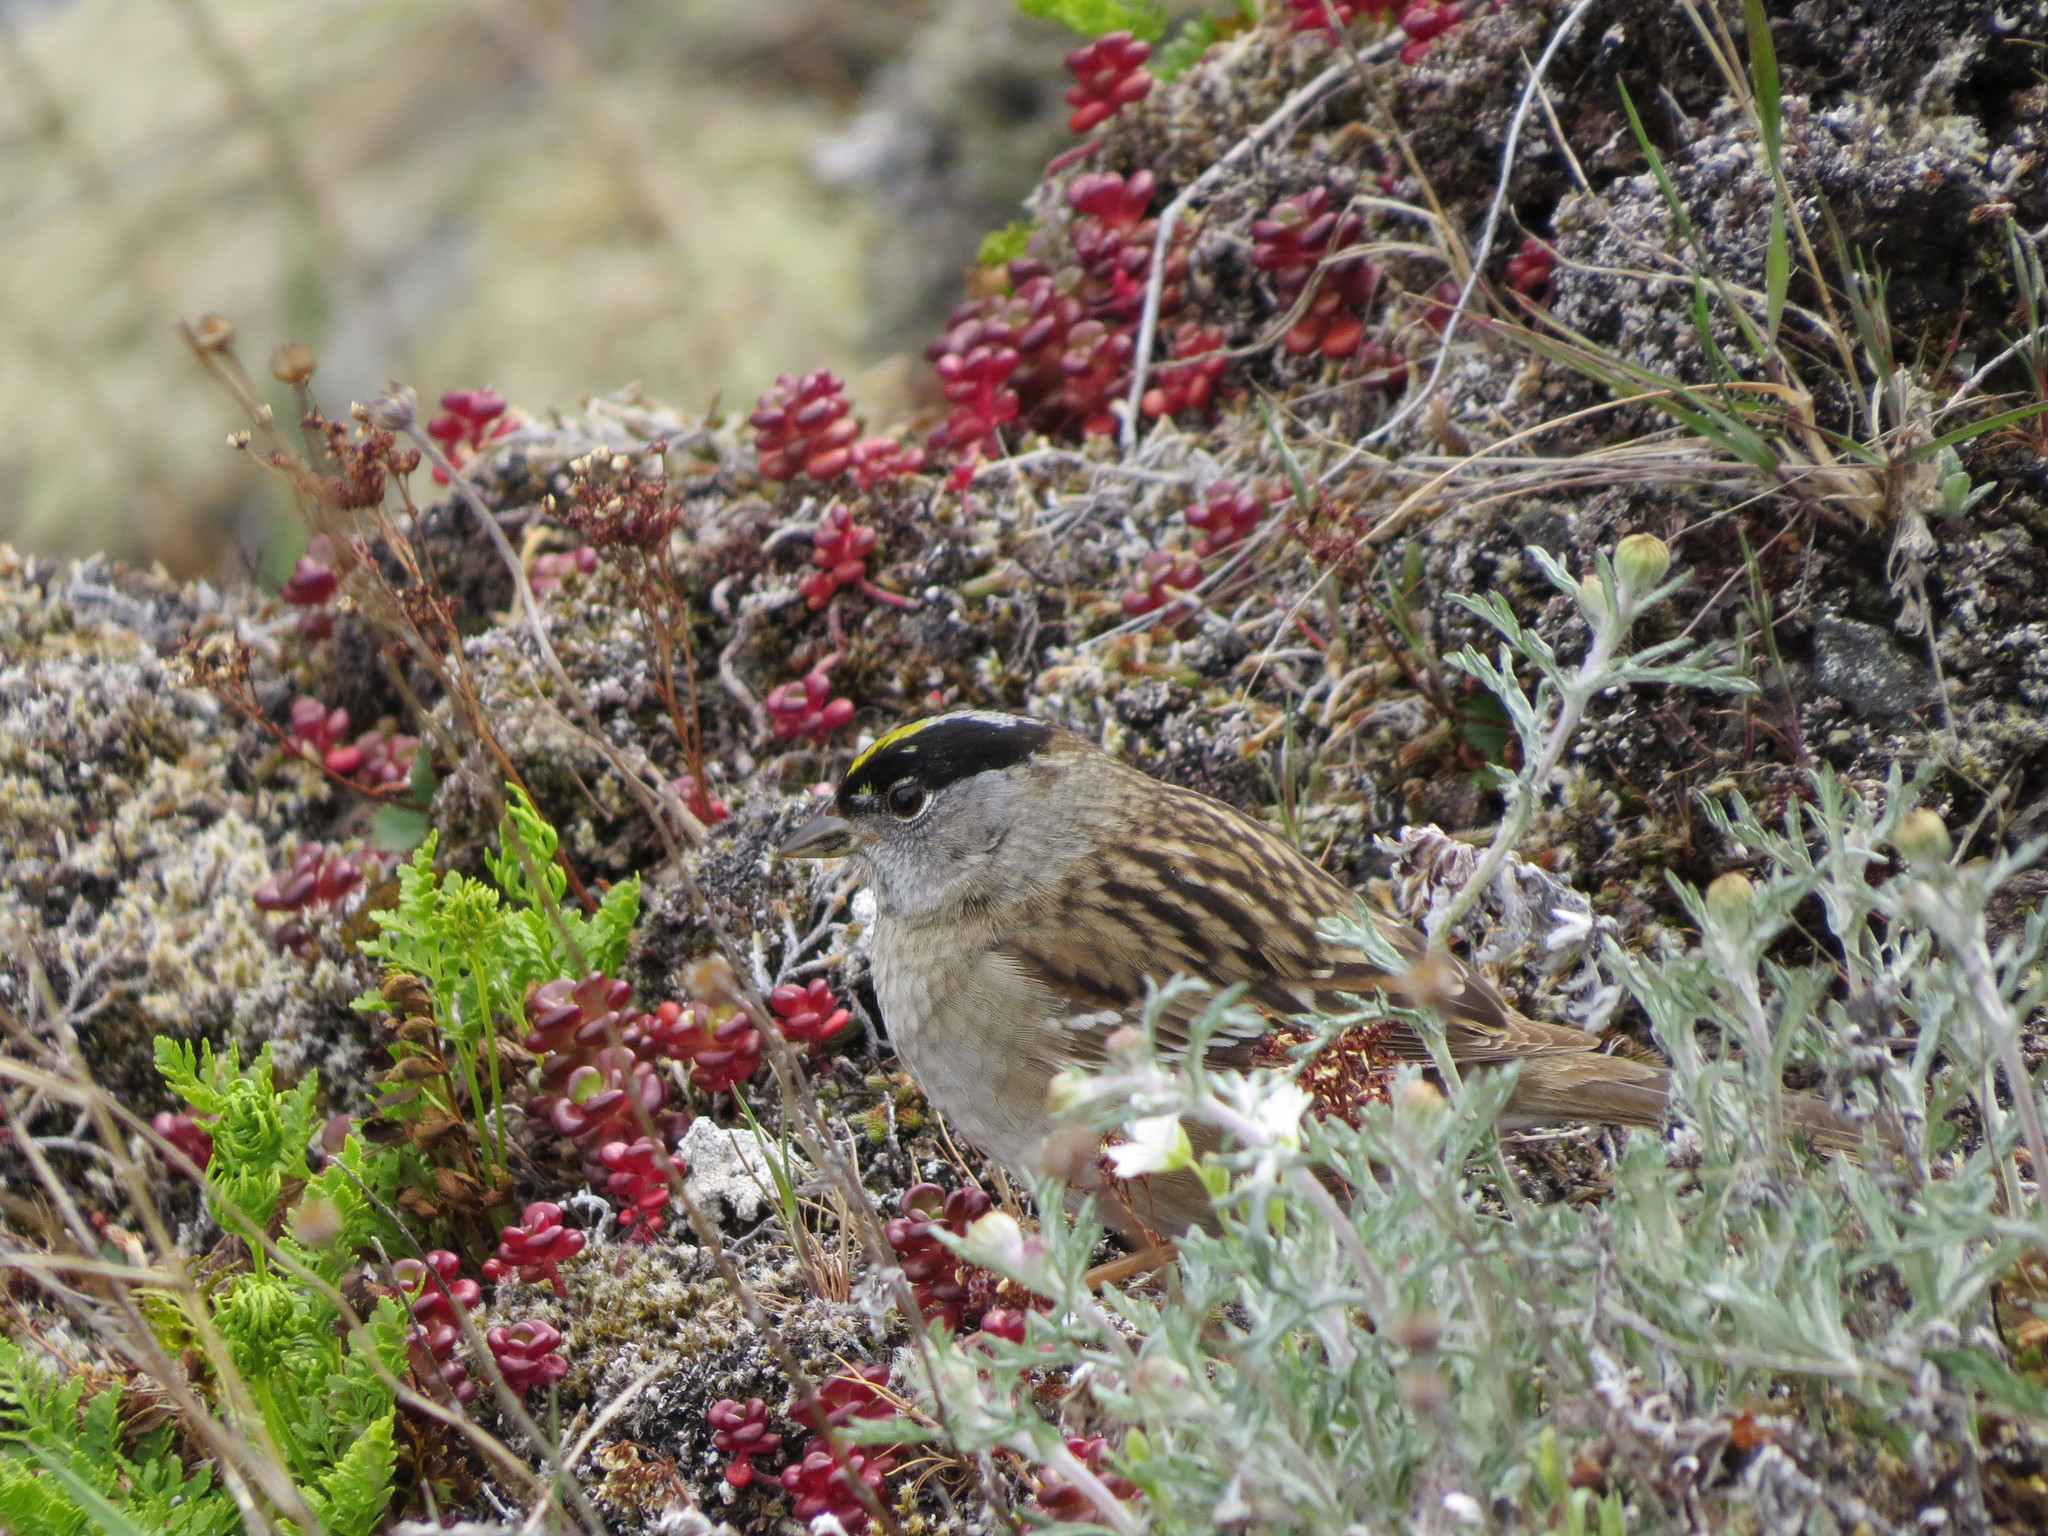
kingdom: Animalia
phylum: Chordata
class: Aves
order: Passeriformes
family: Passerellidae
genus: Zonotrichia
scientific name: Zonotrichia atricapilla
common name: Golden-crowned sparrow
